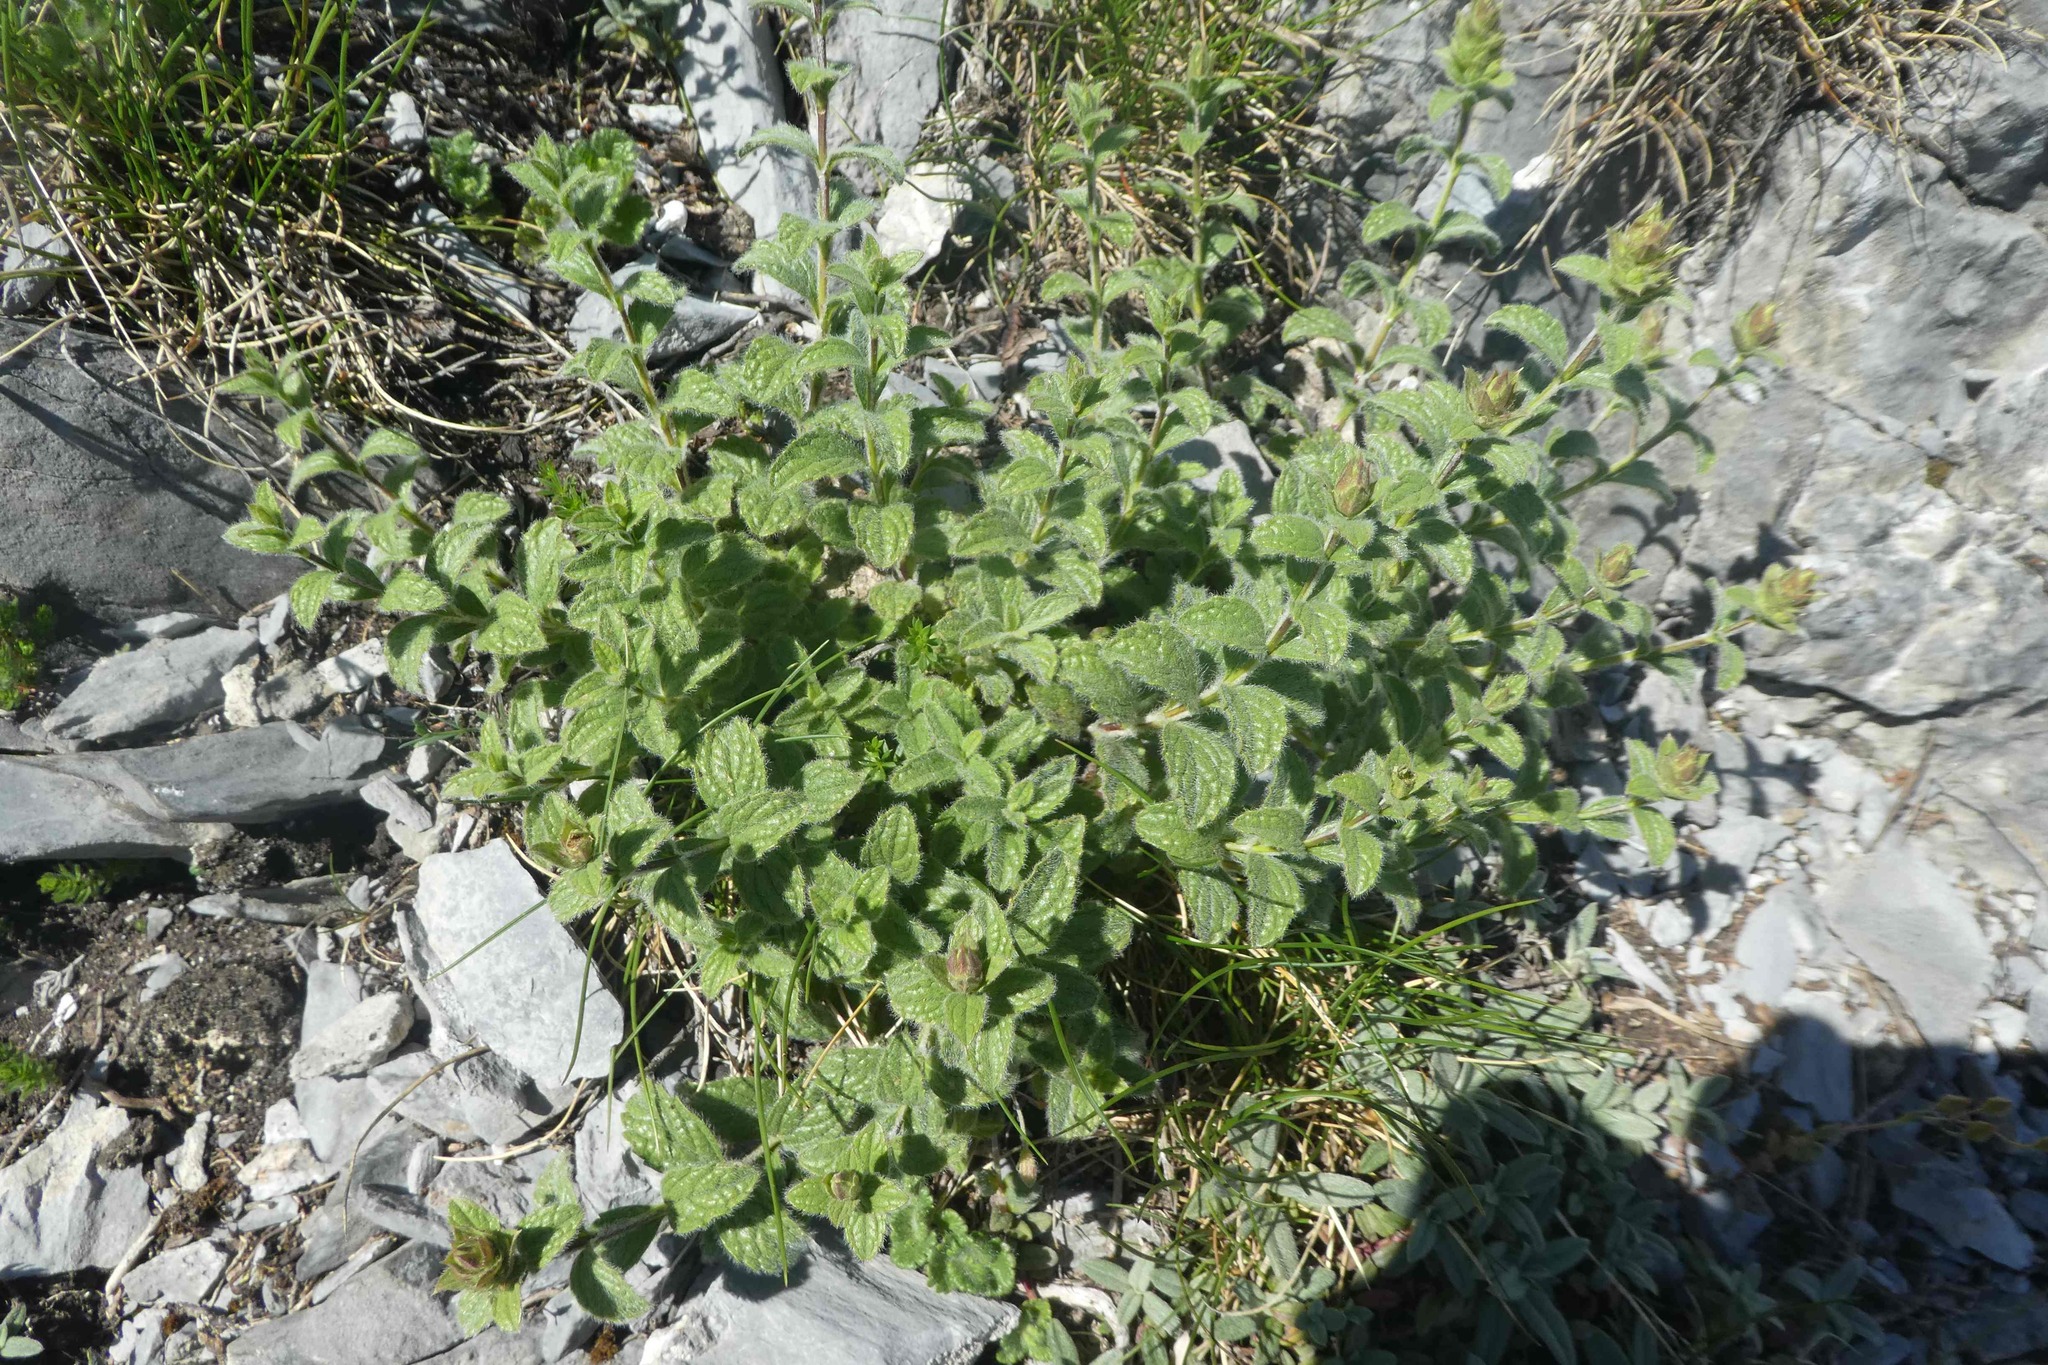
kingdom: Plantae
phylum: Tracheophyta
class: Magnoliopsida
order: Lamiales
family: Lamiaceae
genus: Sideritis
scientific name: Sideritis hyssopifolia
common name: Mountain tea
